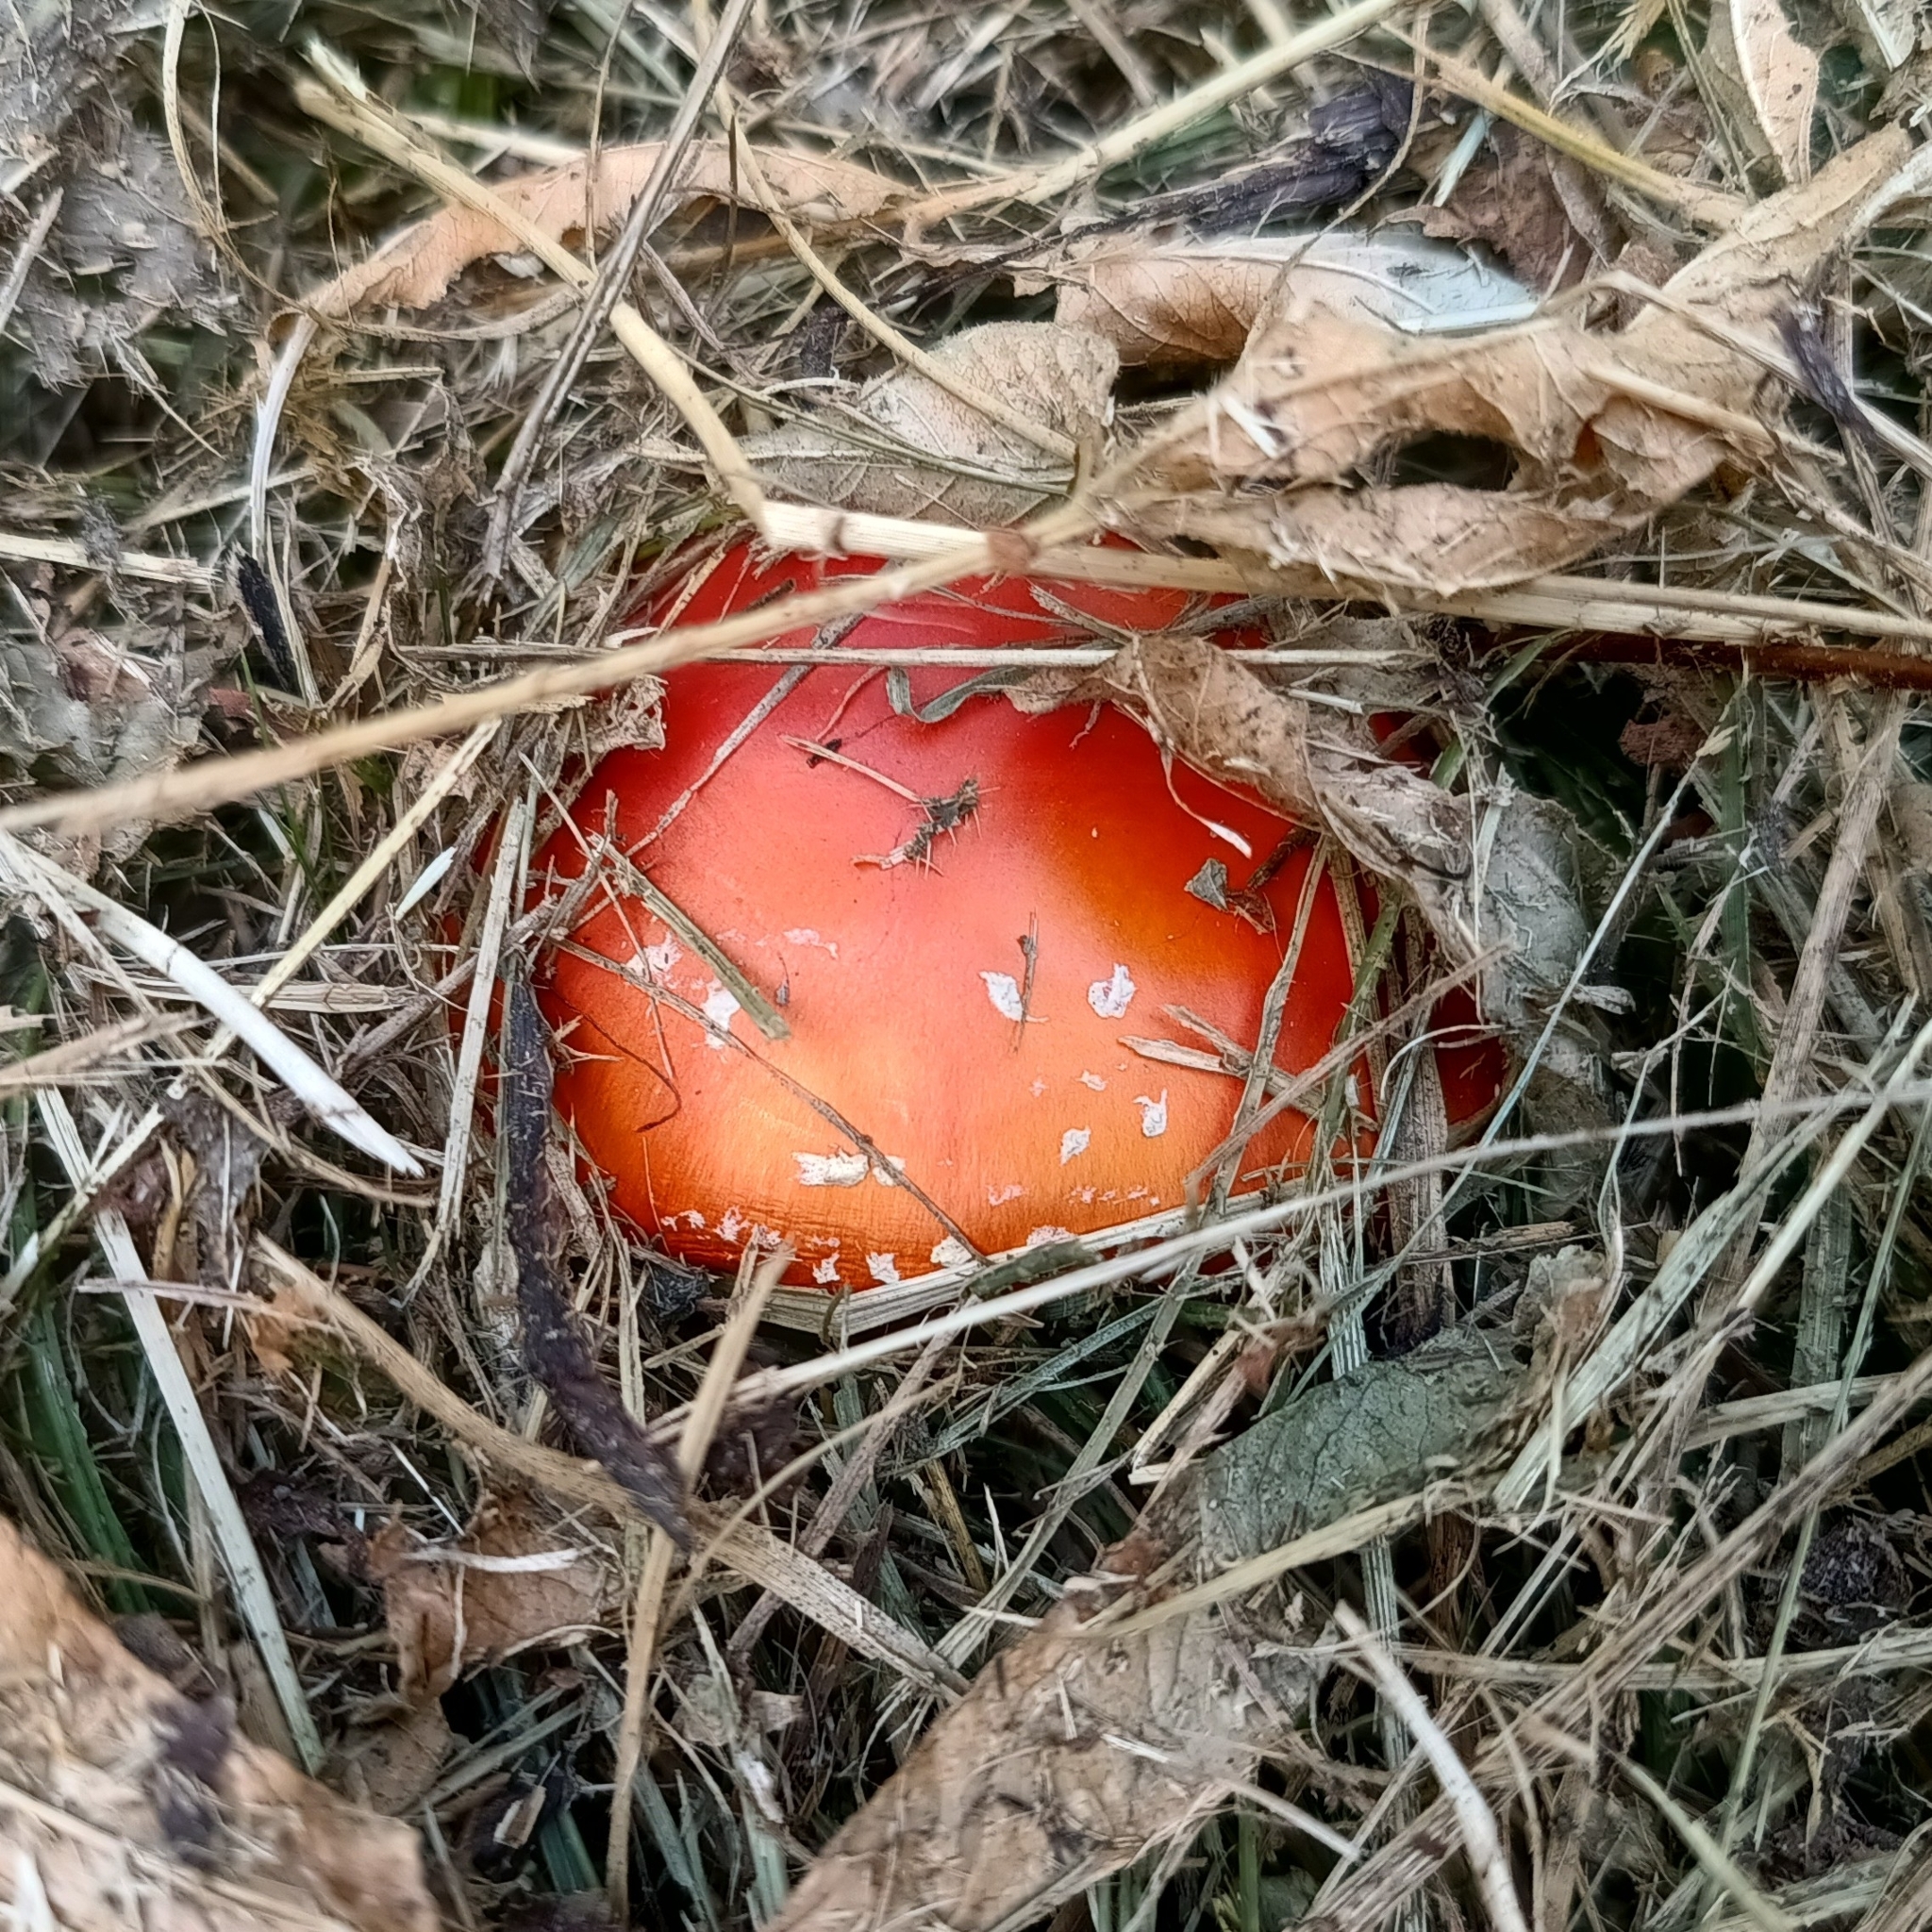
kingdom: Fungi
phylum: Basidiomycota
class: Agaricomycetes
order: Agaricales
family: Amanitaceae
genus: Amanita
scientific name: Amanita muscaria
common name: Fly agaric
